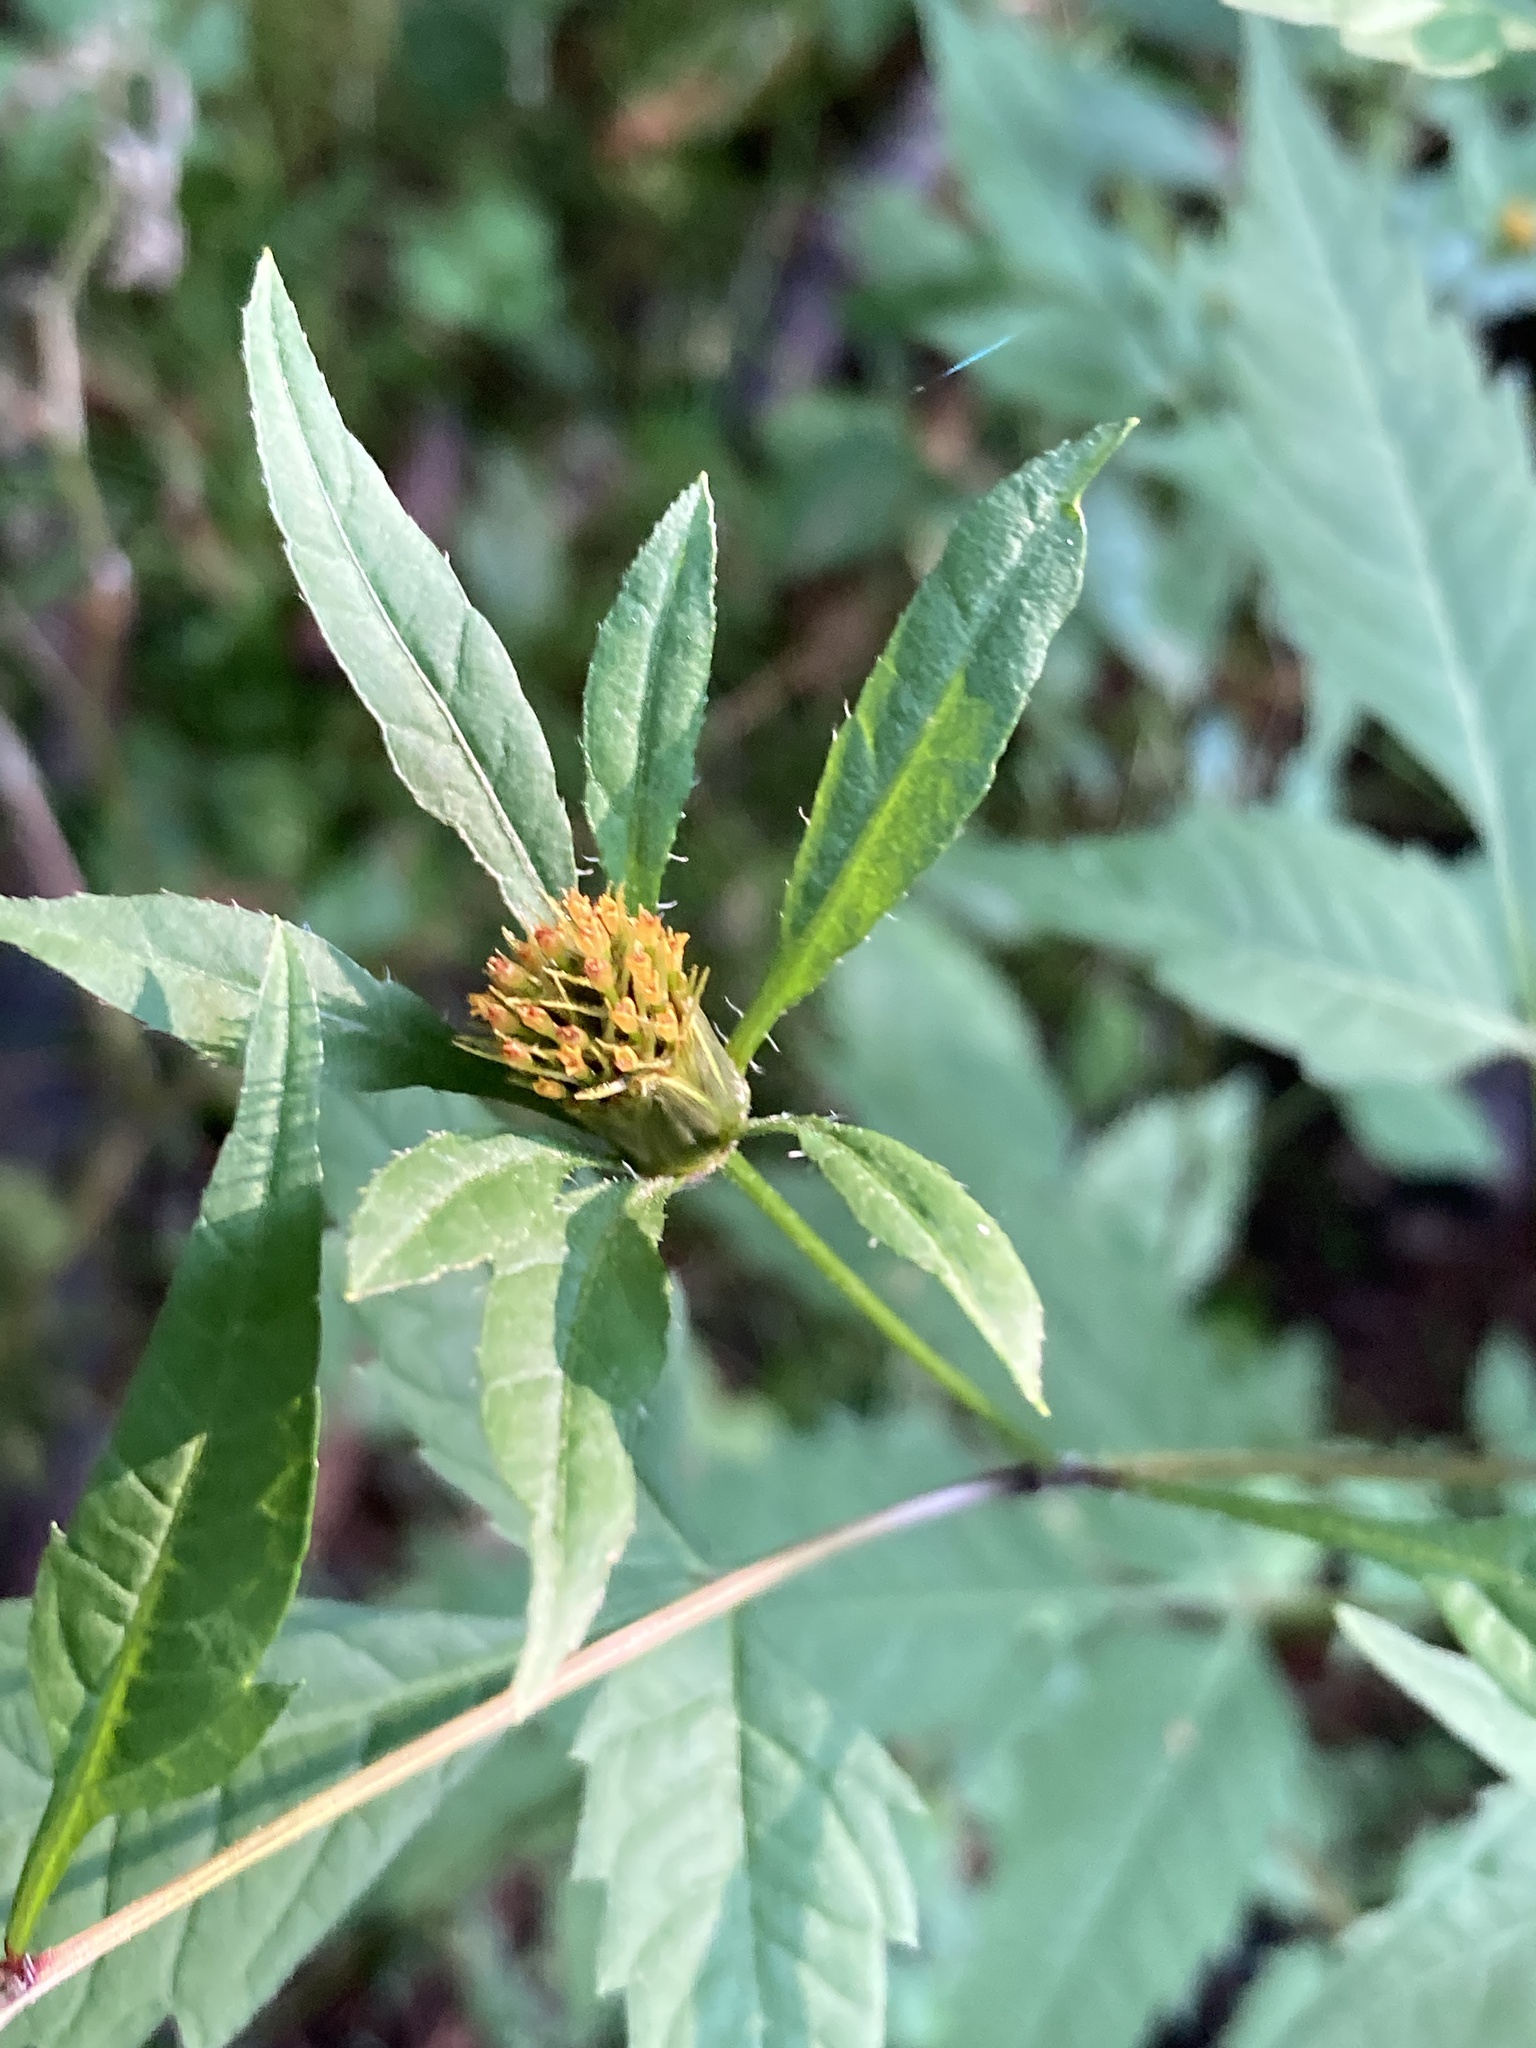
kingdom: Plantae
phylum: Tracheophyta
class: Magnoliopsida
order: Asterales
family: Asteraceae
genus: Bidens
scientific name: Bidens frondosa
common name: Beggarticks
